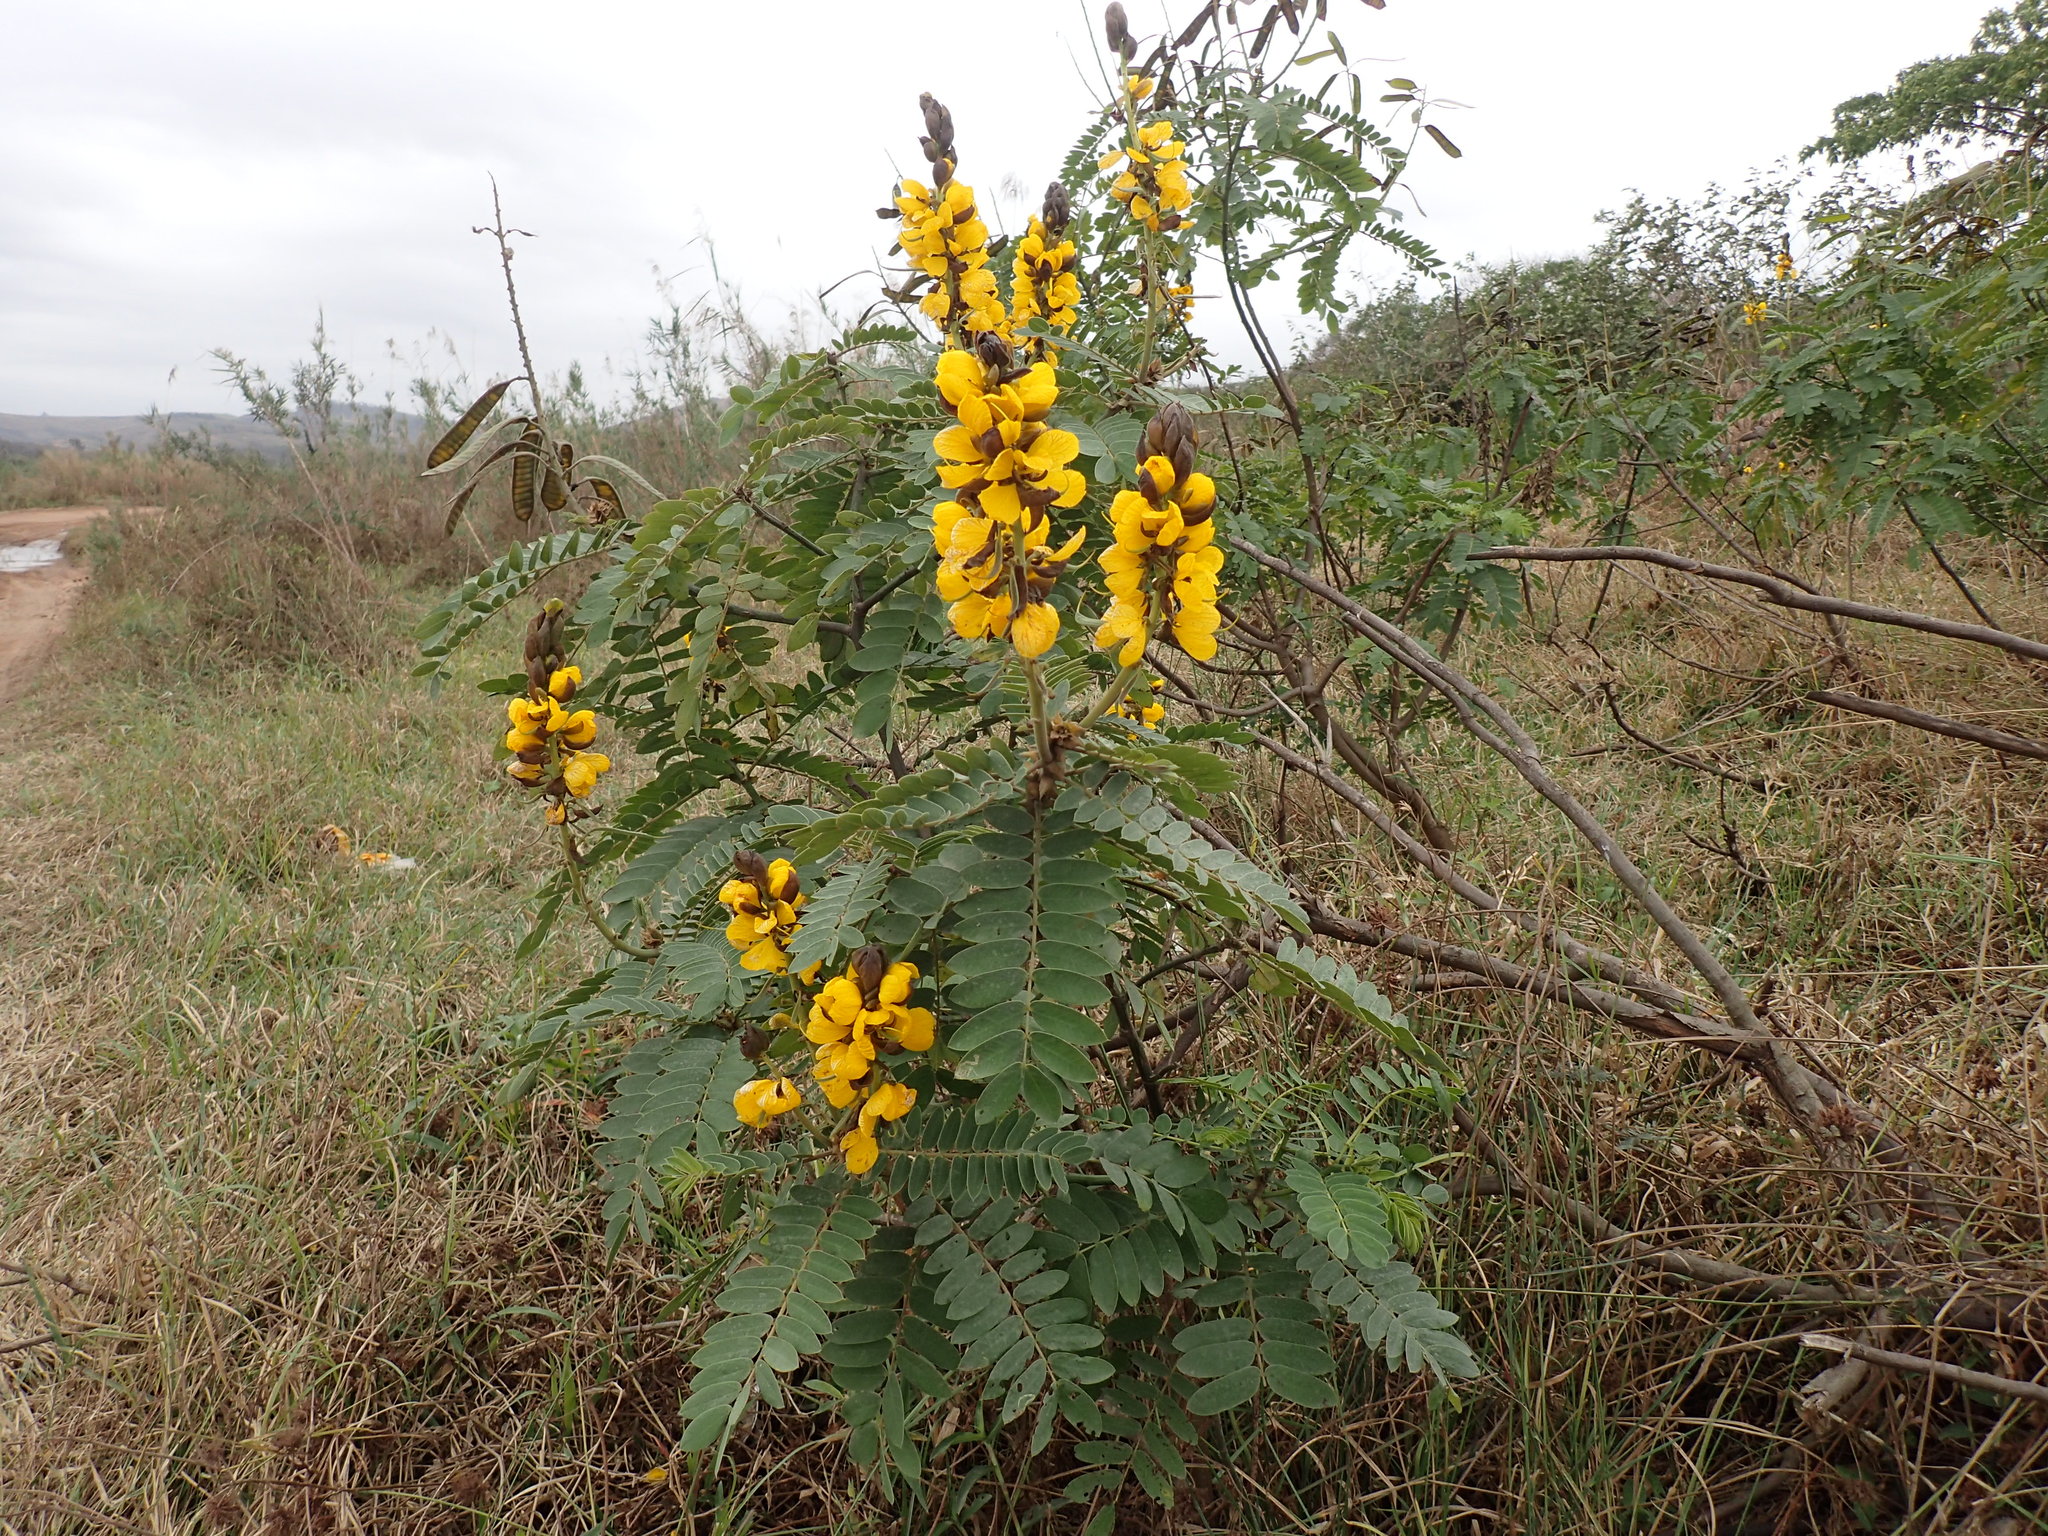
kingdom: Plantae
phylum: Tracheophyta
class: Magnoliopsida
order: Fabales
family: Fabaceae
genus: Senna
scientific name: Senna didymobotrya
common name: African senna
